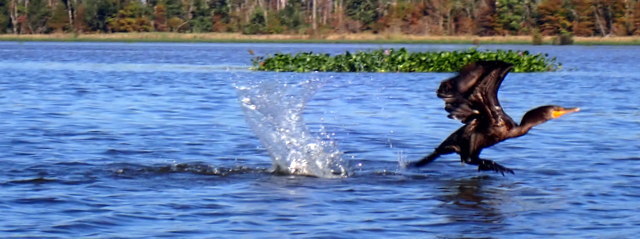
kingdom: Animalia
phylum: Chordata
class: Aves
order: Suliformes
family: Phalacrocoracidae
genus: Phalacrocorax
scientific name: Phalacrocorax auritus
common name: Double-crested cormorant
